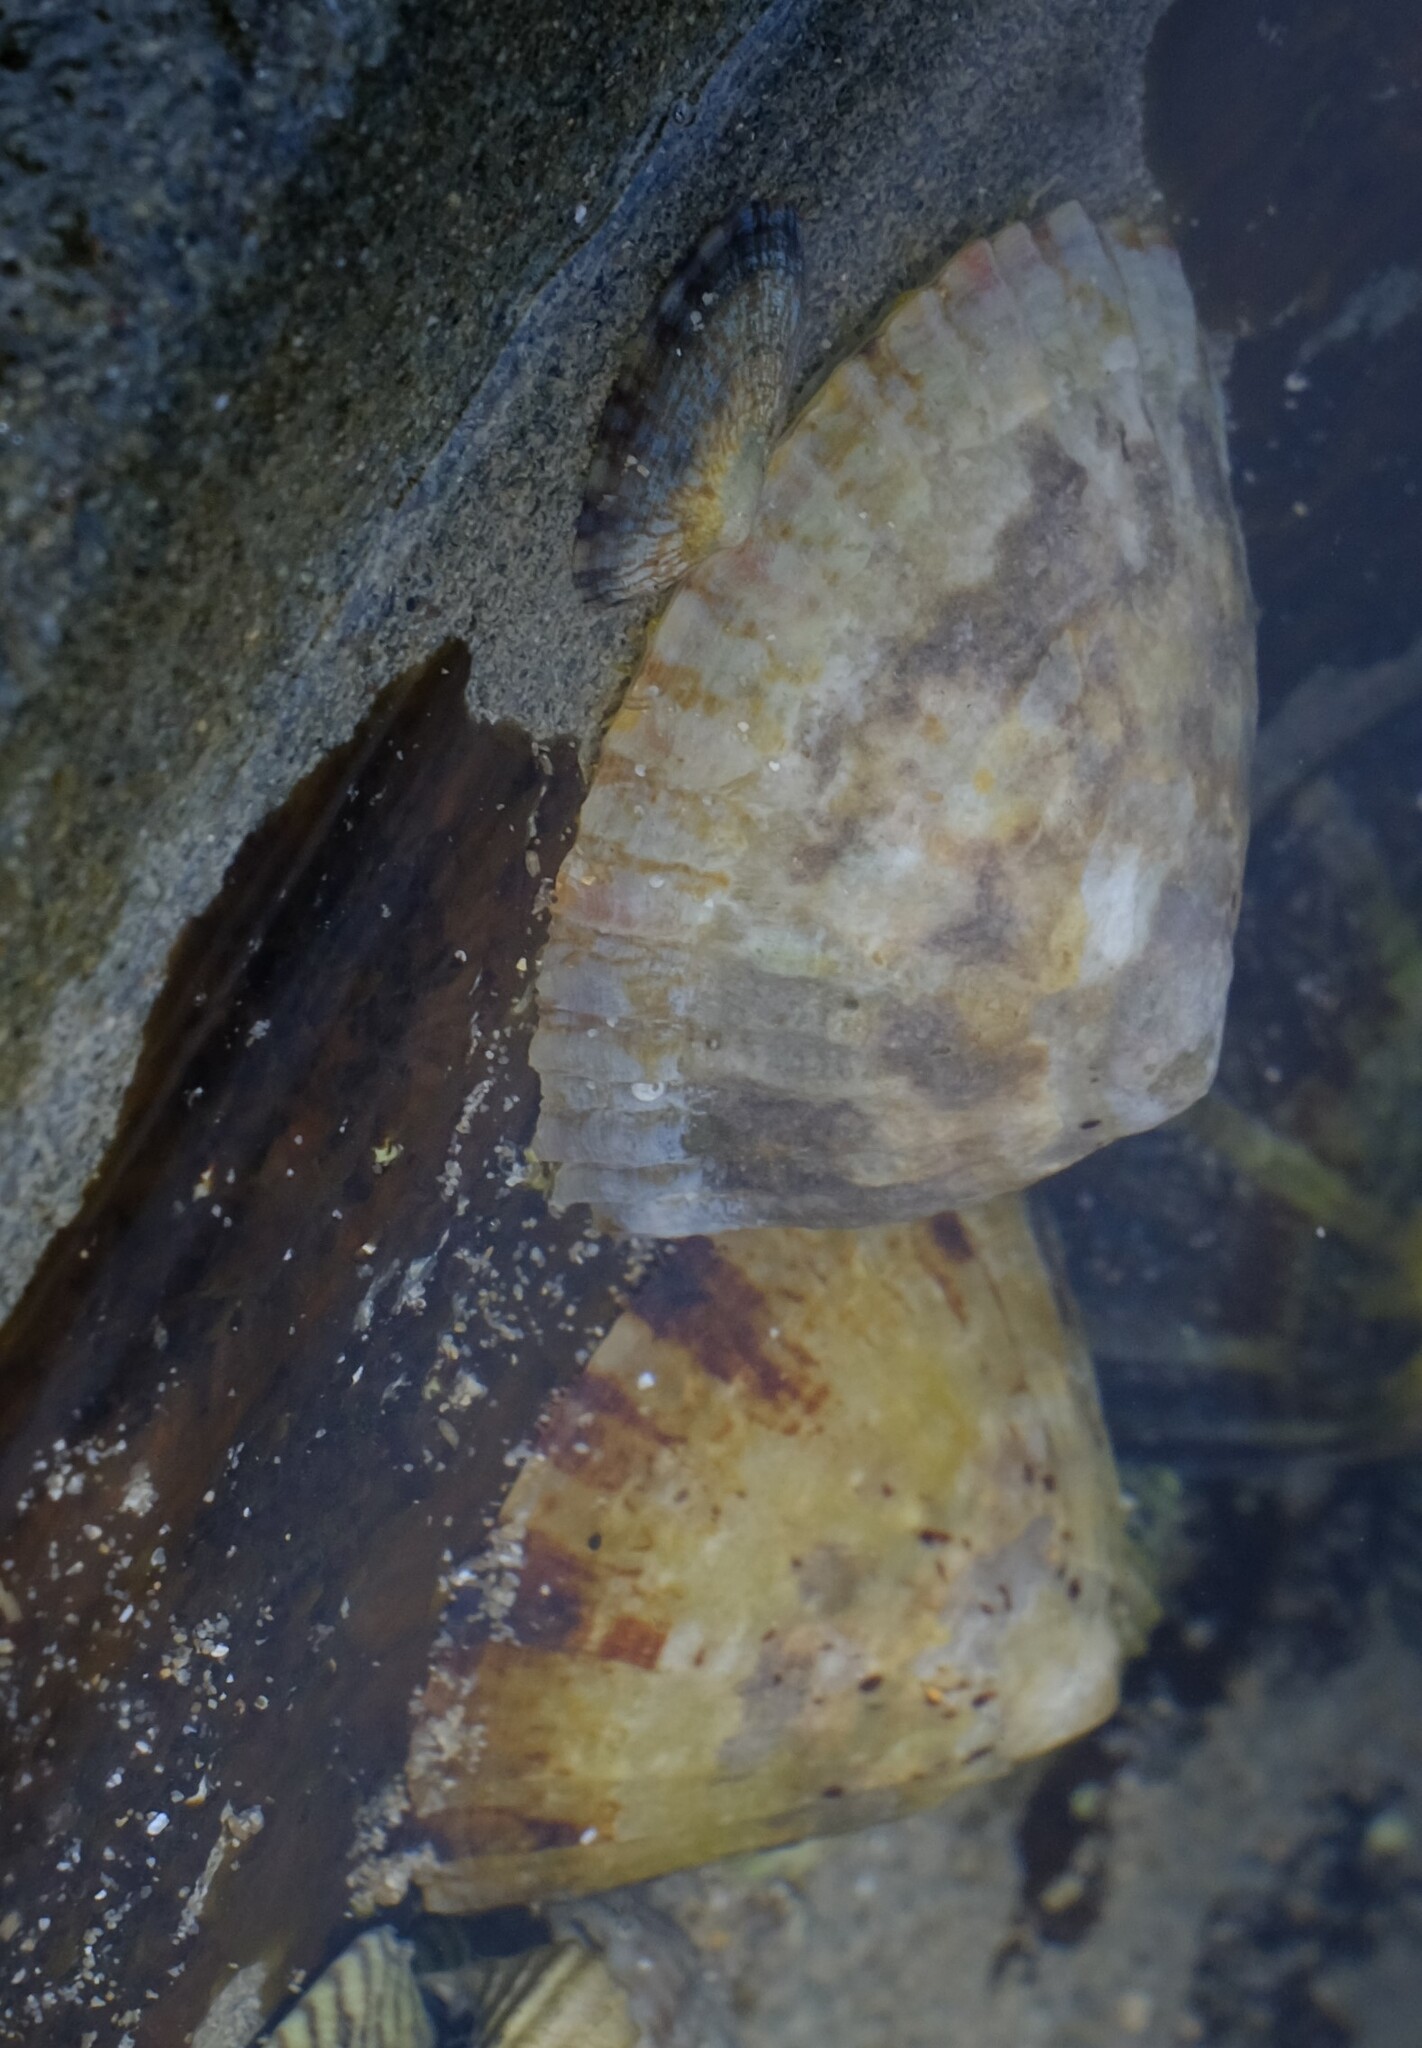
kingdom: Animalia
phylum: Mollusca
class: Gastropoda
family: Nacellidae
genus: Cellana
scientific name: Cellana tramoserica
